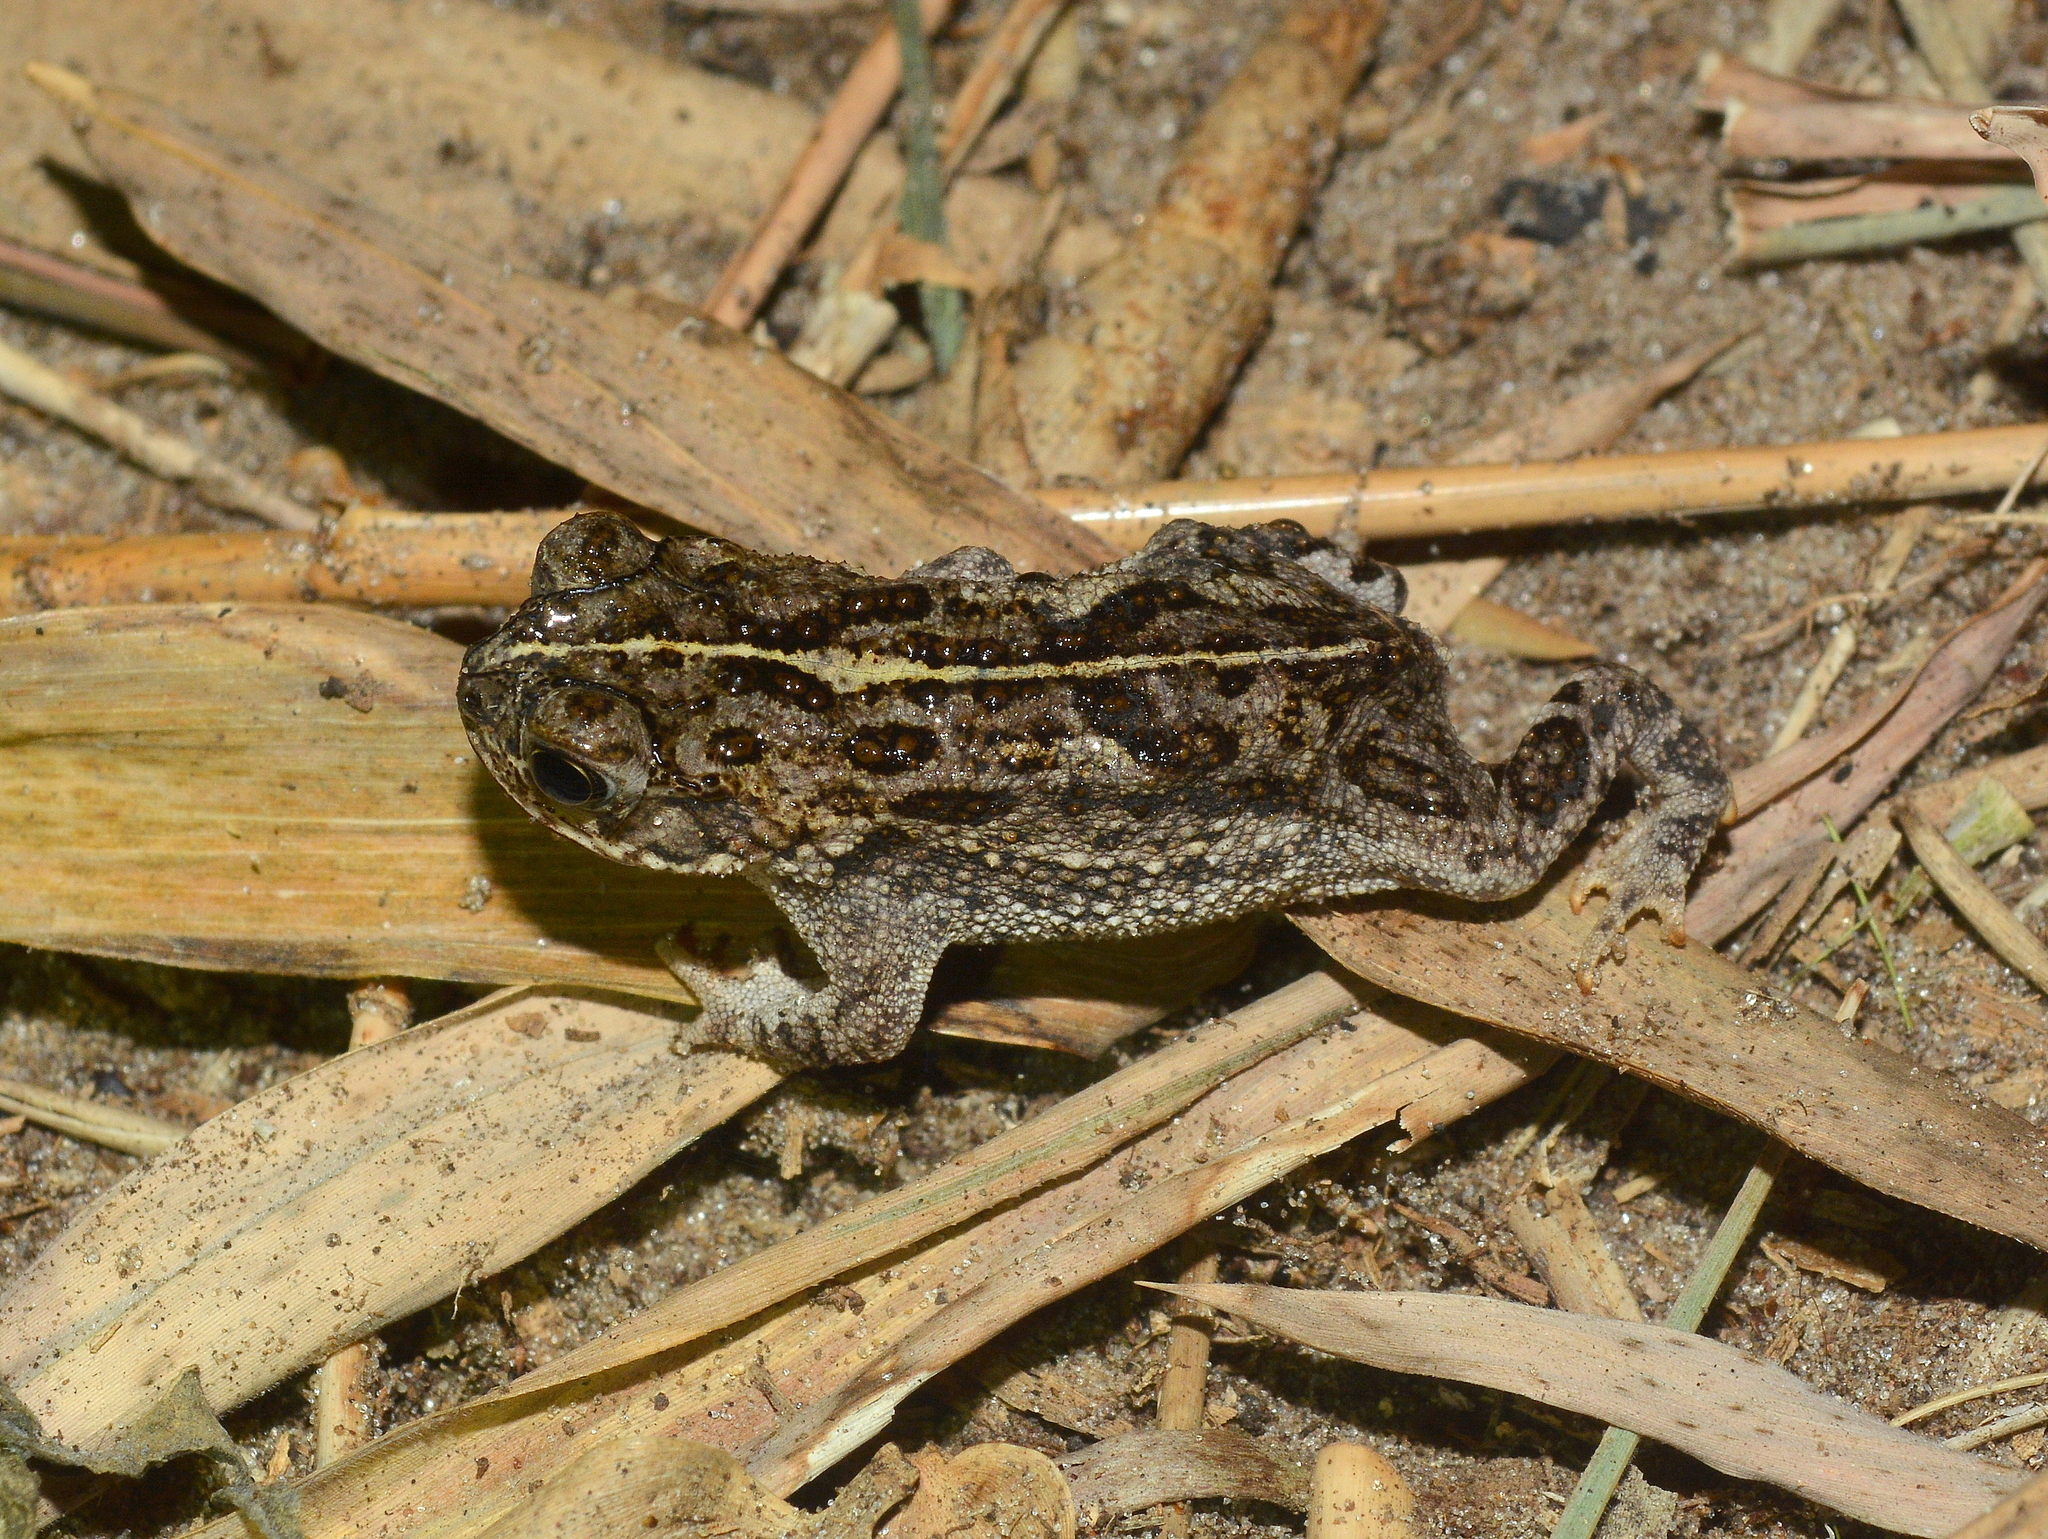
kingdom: Animalia
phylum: Chordata
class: Amphibia
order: Anura
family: Bufonidae
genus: Rhinella
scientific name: Rhinella dorbignyi
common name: D´orbigny’s toad
